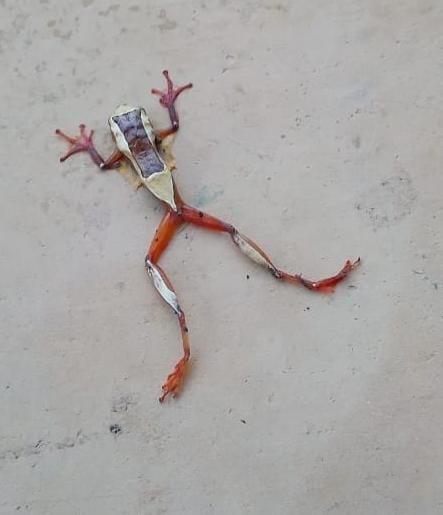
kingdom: Animalia
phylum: Chordata
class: Amphibia
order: Anura
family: Hylidae
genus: Dendropsophus
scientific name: Dendropsophus elegans
